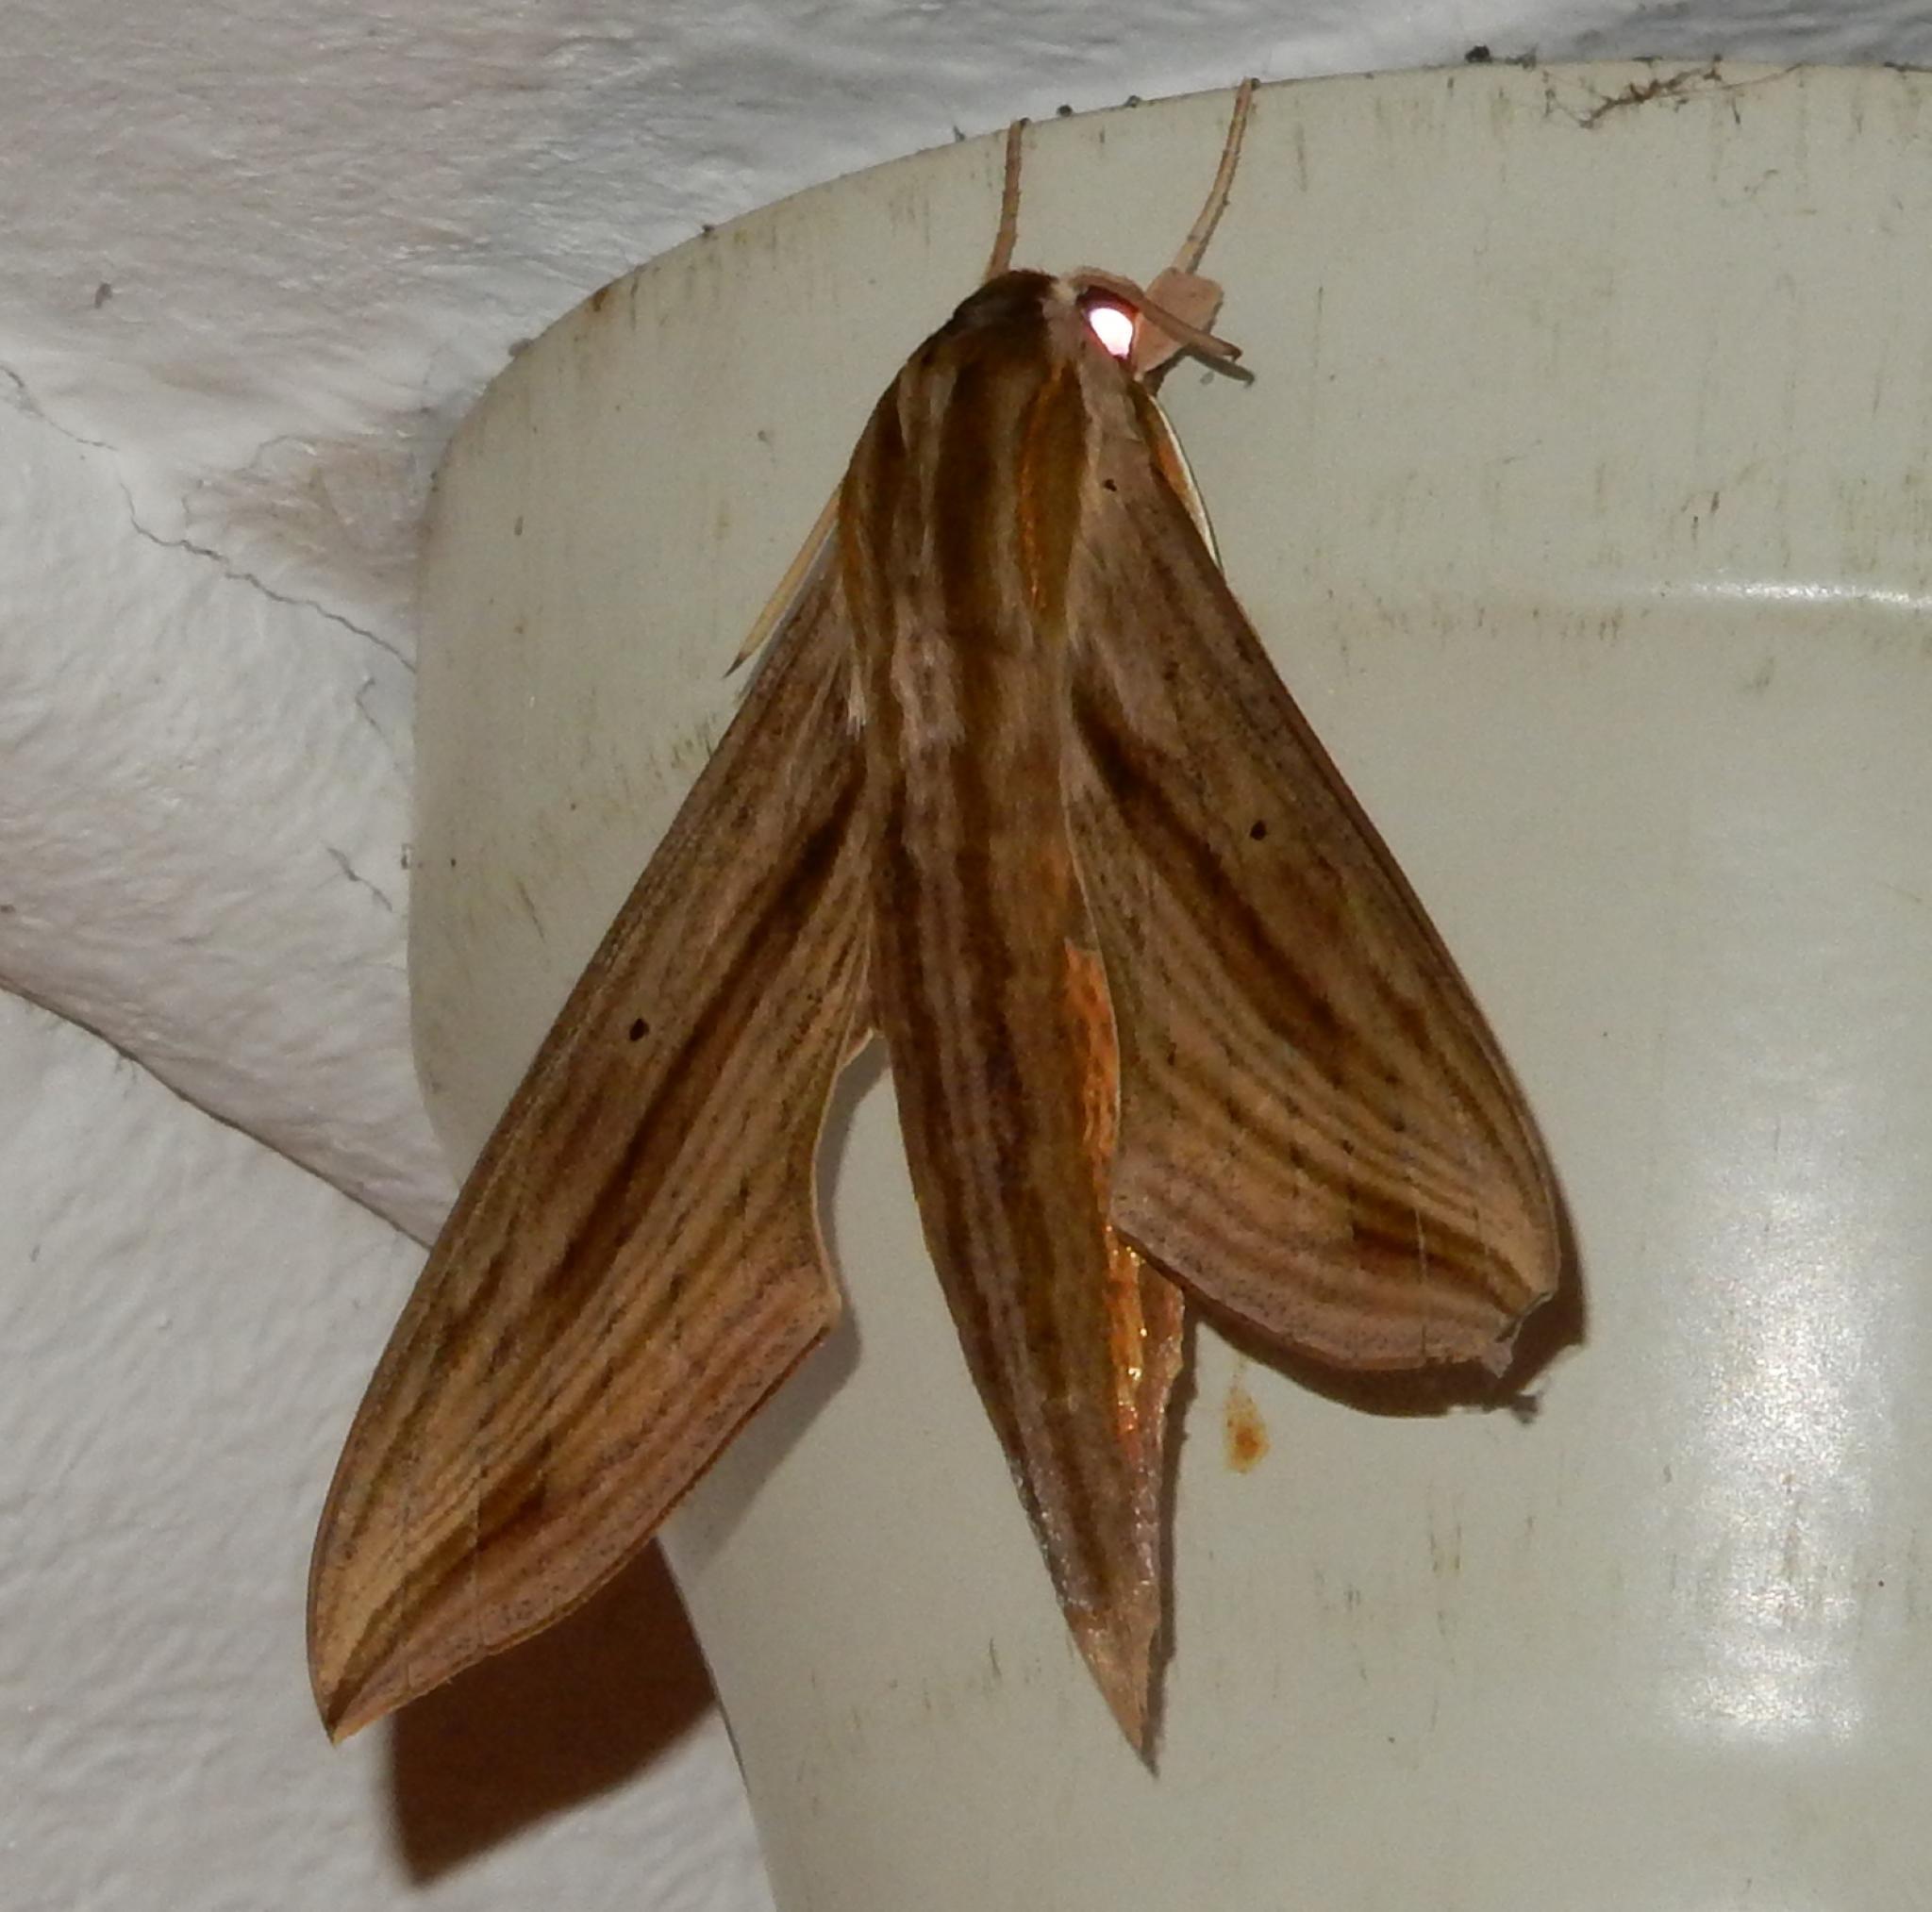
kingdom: Animalia
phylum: Arthropoda
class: Insecta
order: Lepidoptera
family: Sphingidae
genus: Hippotion
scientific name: Hippotion eson
